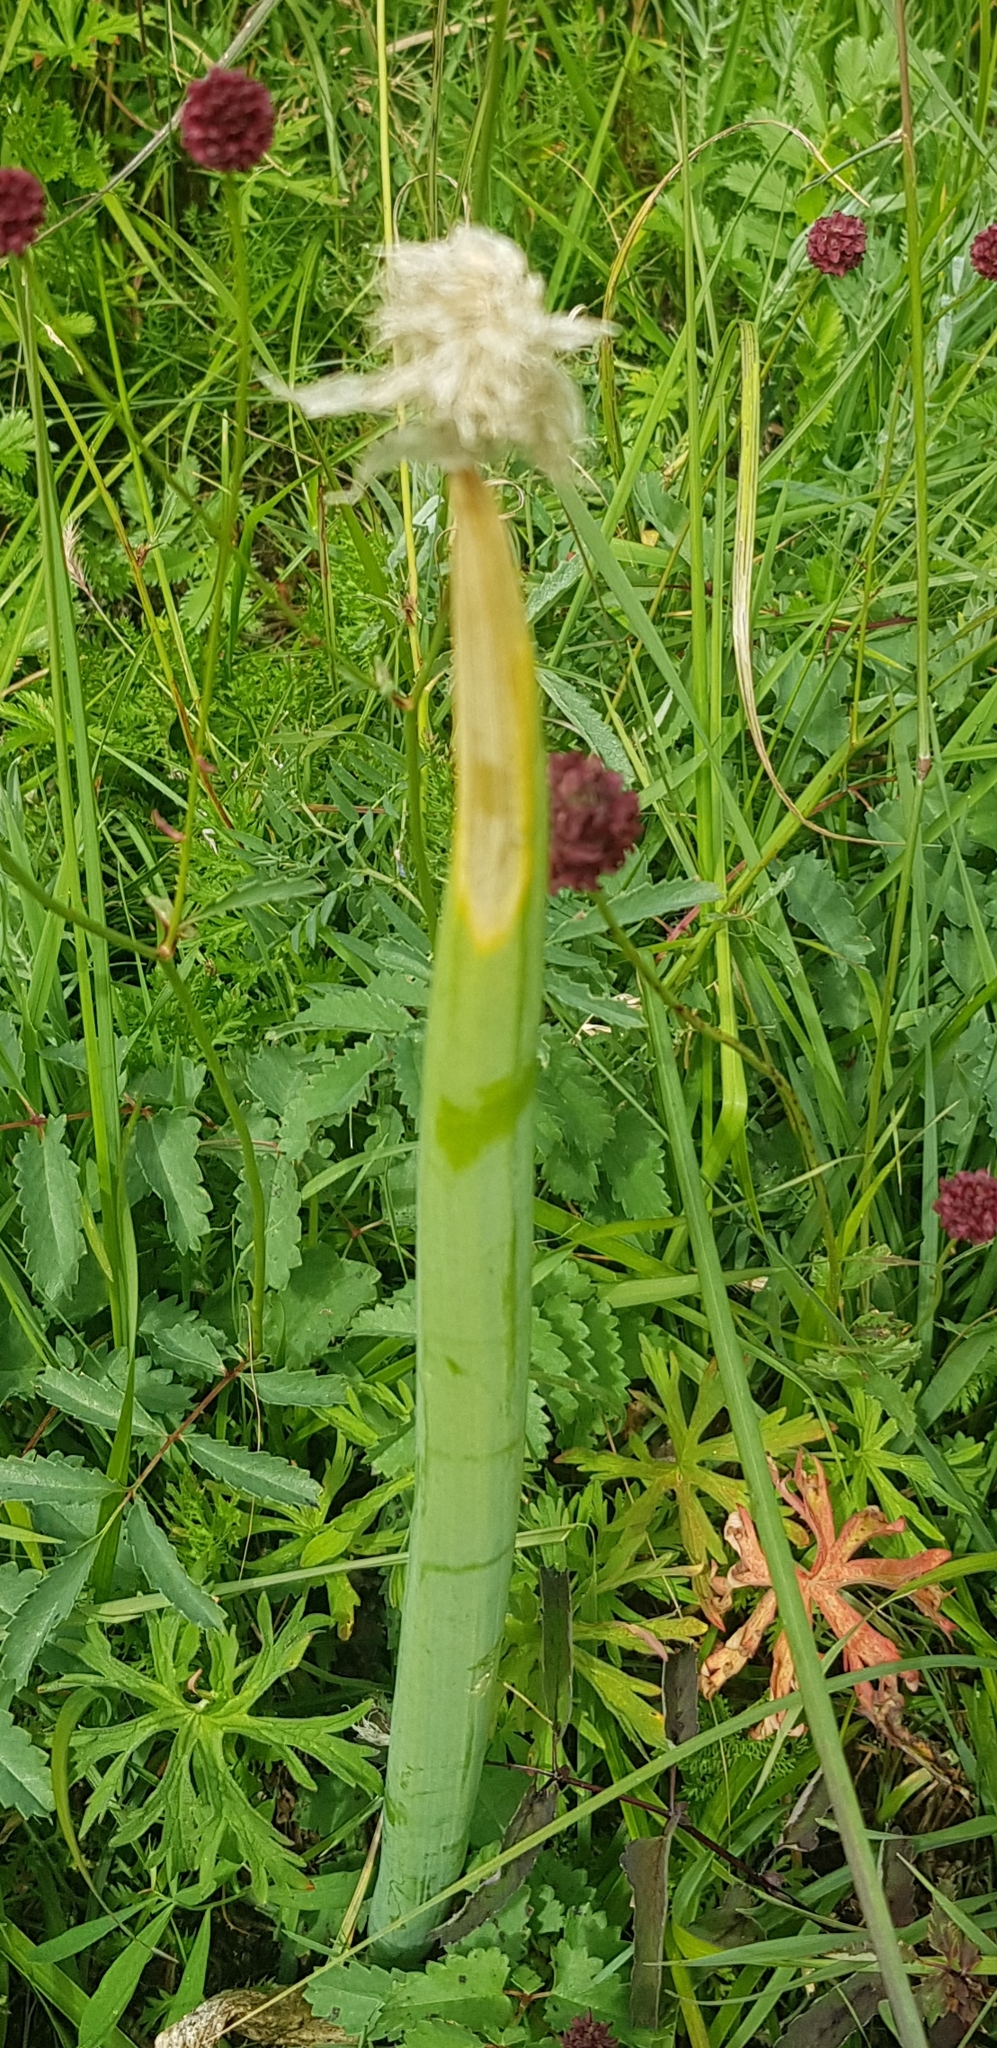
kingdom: Plantae
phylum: Tracheophyta
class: Liliopsida
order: Asparagales
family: Amaryllidaceae
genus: Allium
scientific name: Allium altaicum
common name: Altai onion
